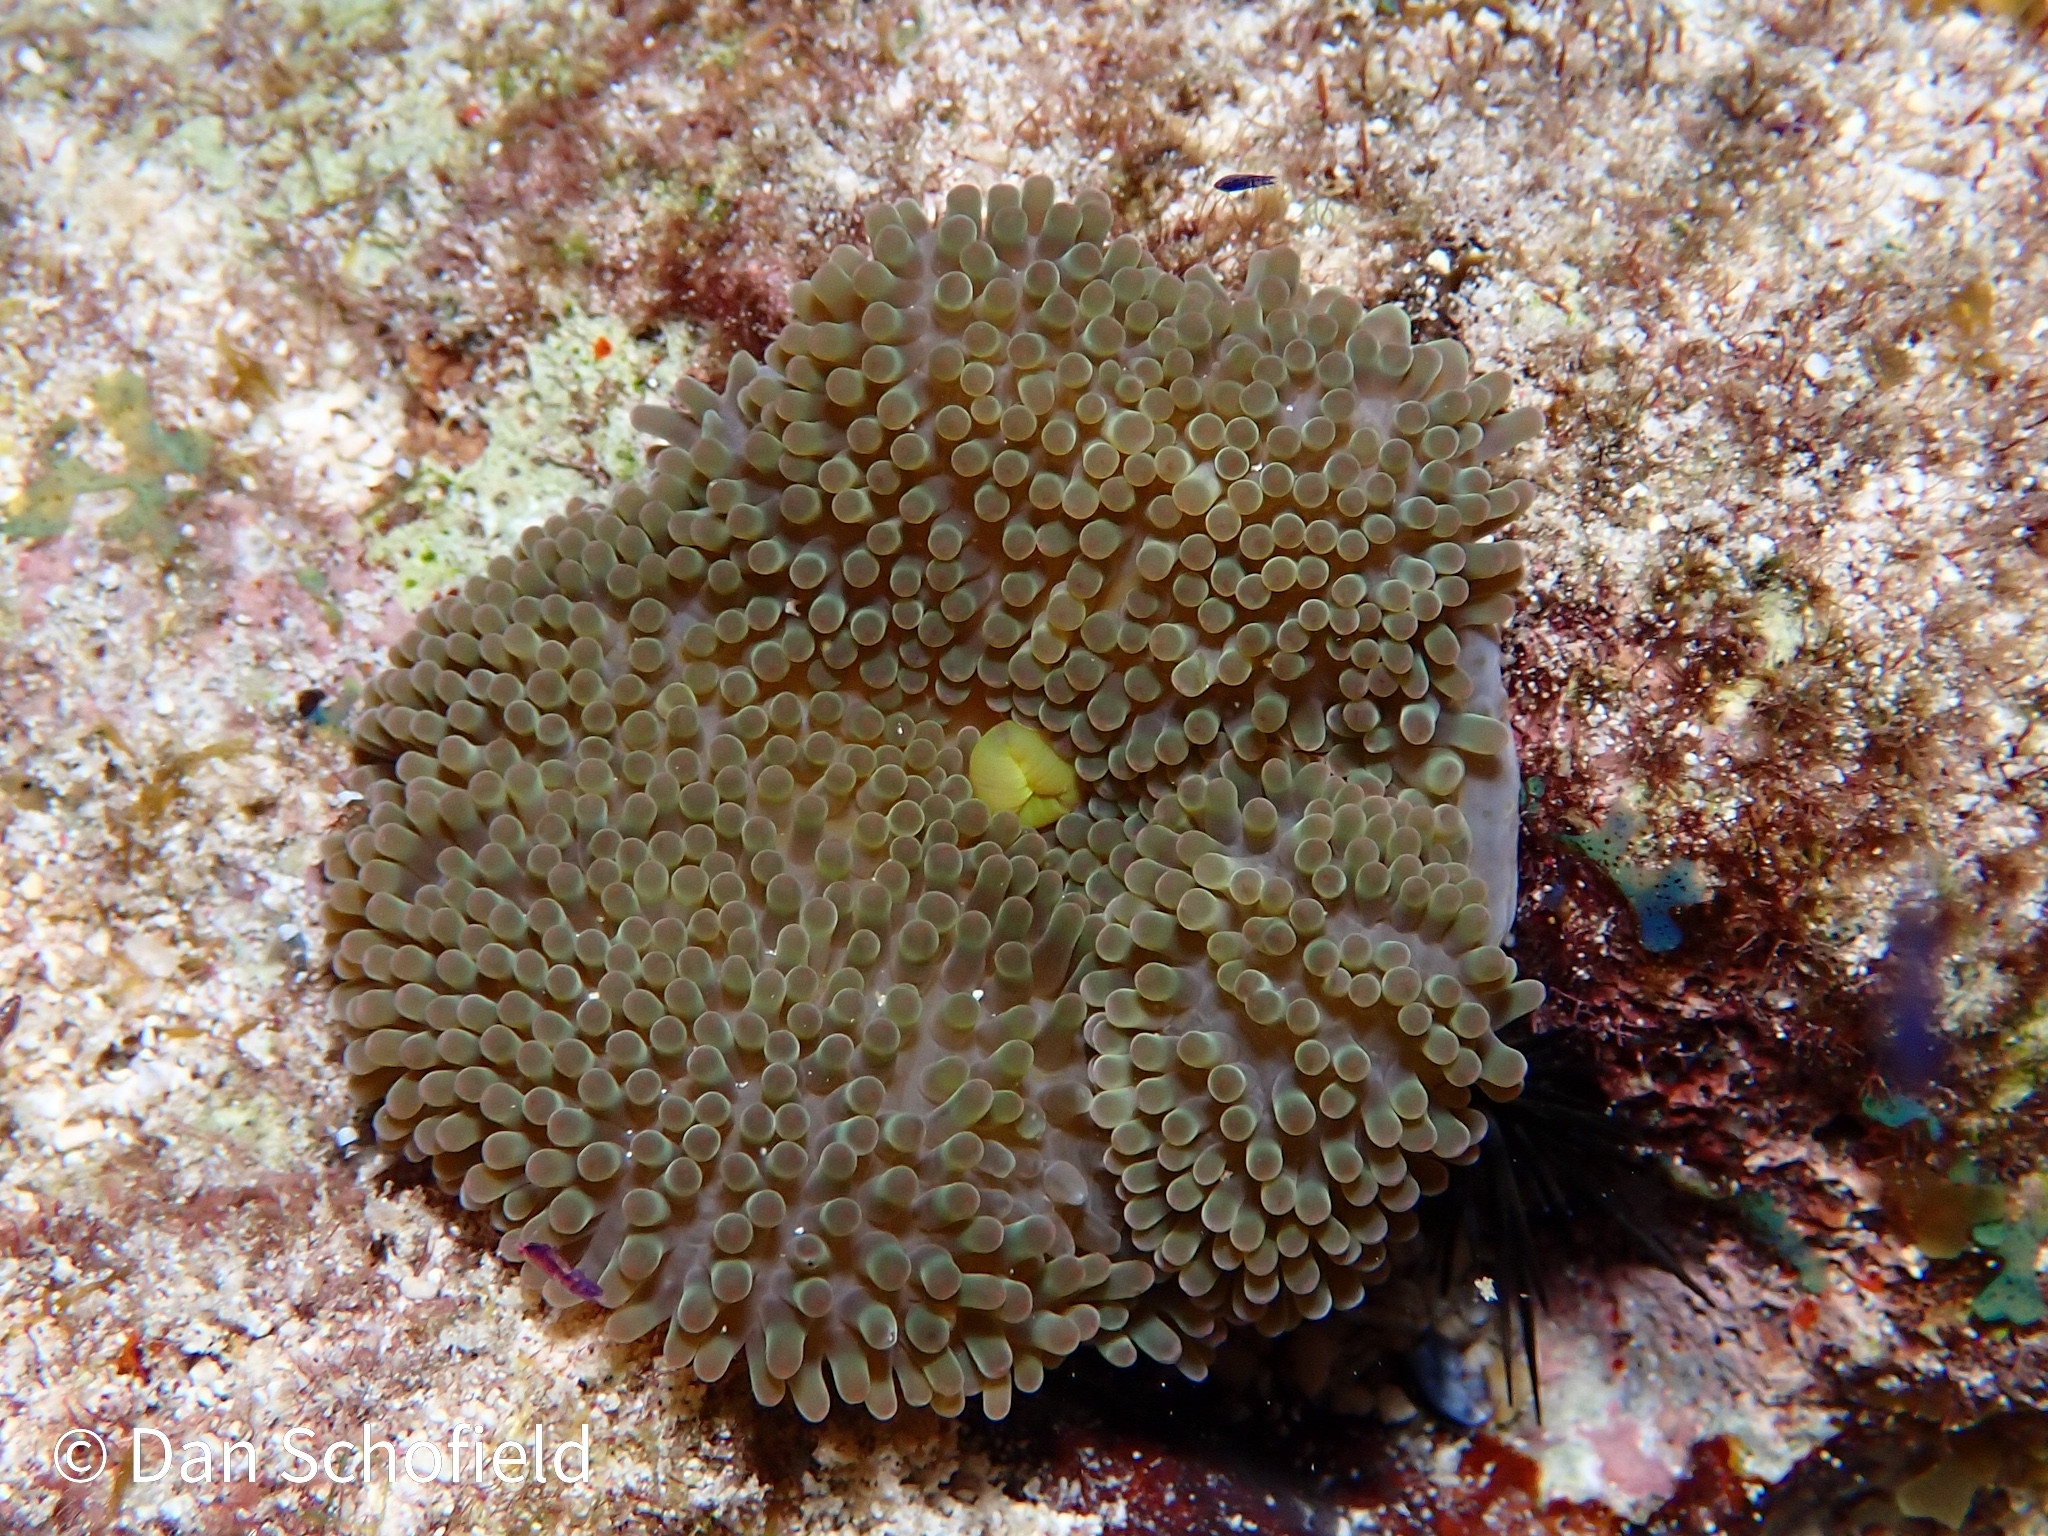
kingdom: Animalia
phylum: Cnidaria
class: Anthozoa
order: Actiniaria
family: Stichodactylidae
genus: Stichodactyla
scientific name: Stichodactyla helianthus
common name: Sun anemone
